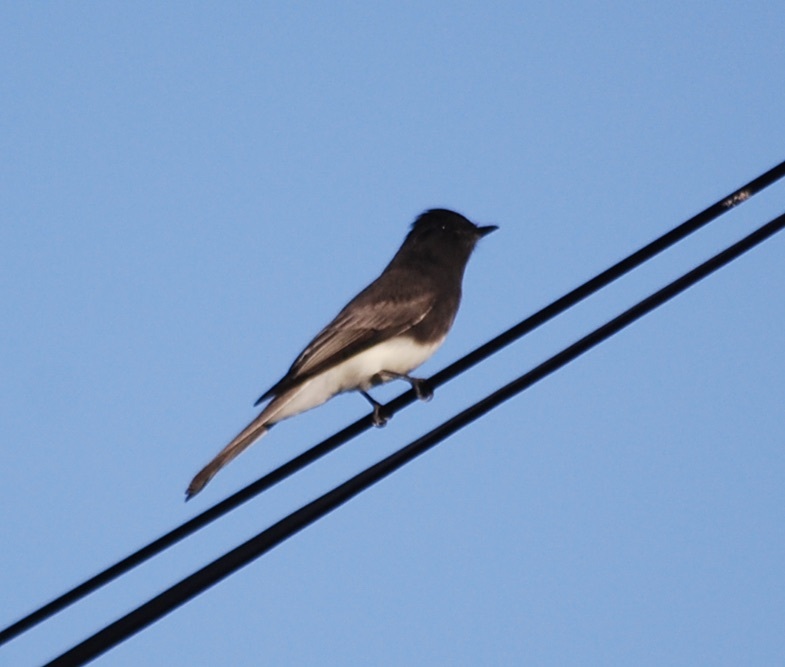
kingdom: Animalia
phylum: Chordata
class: Aves
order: Passeriformes
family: Tyrannidae
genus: Sayornis
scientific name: Sayornis nigricans
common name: Black phoebe
